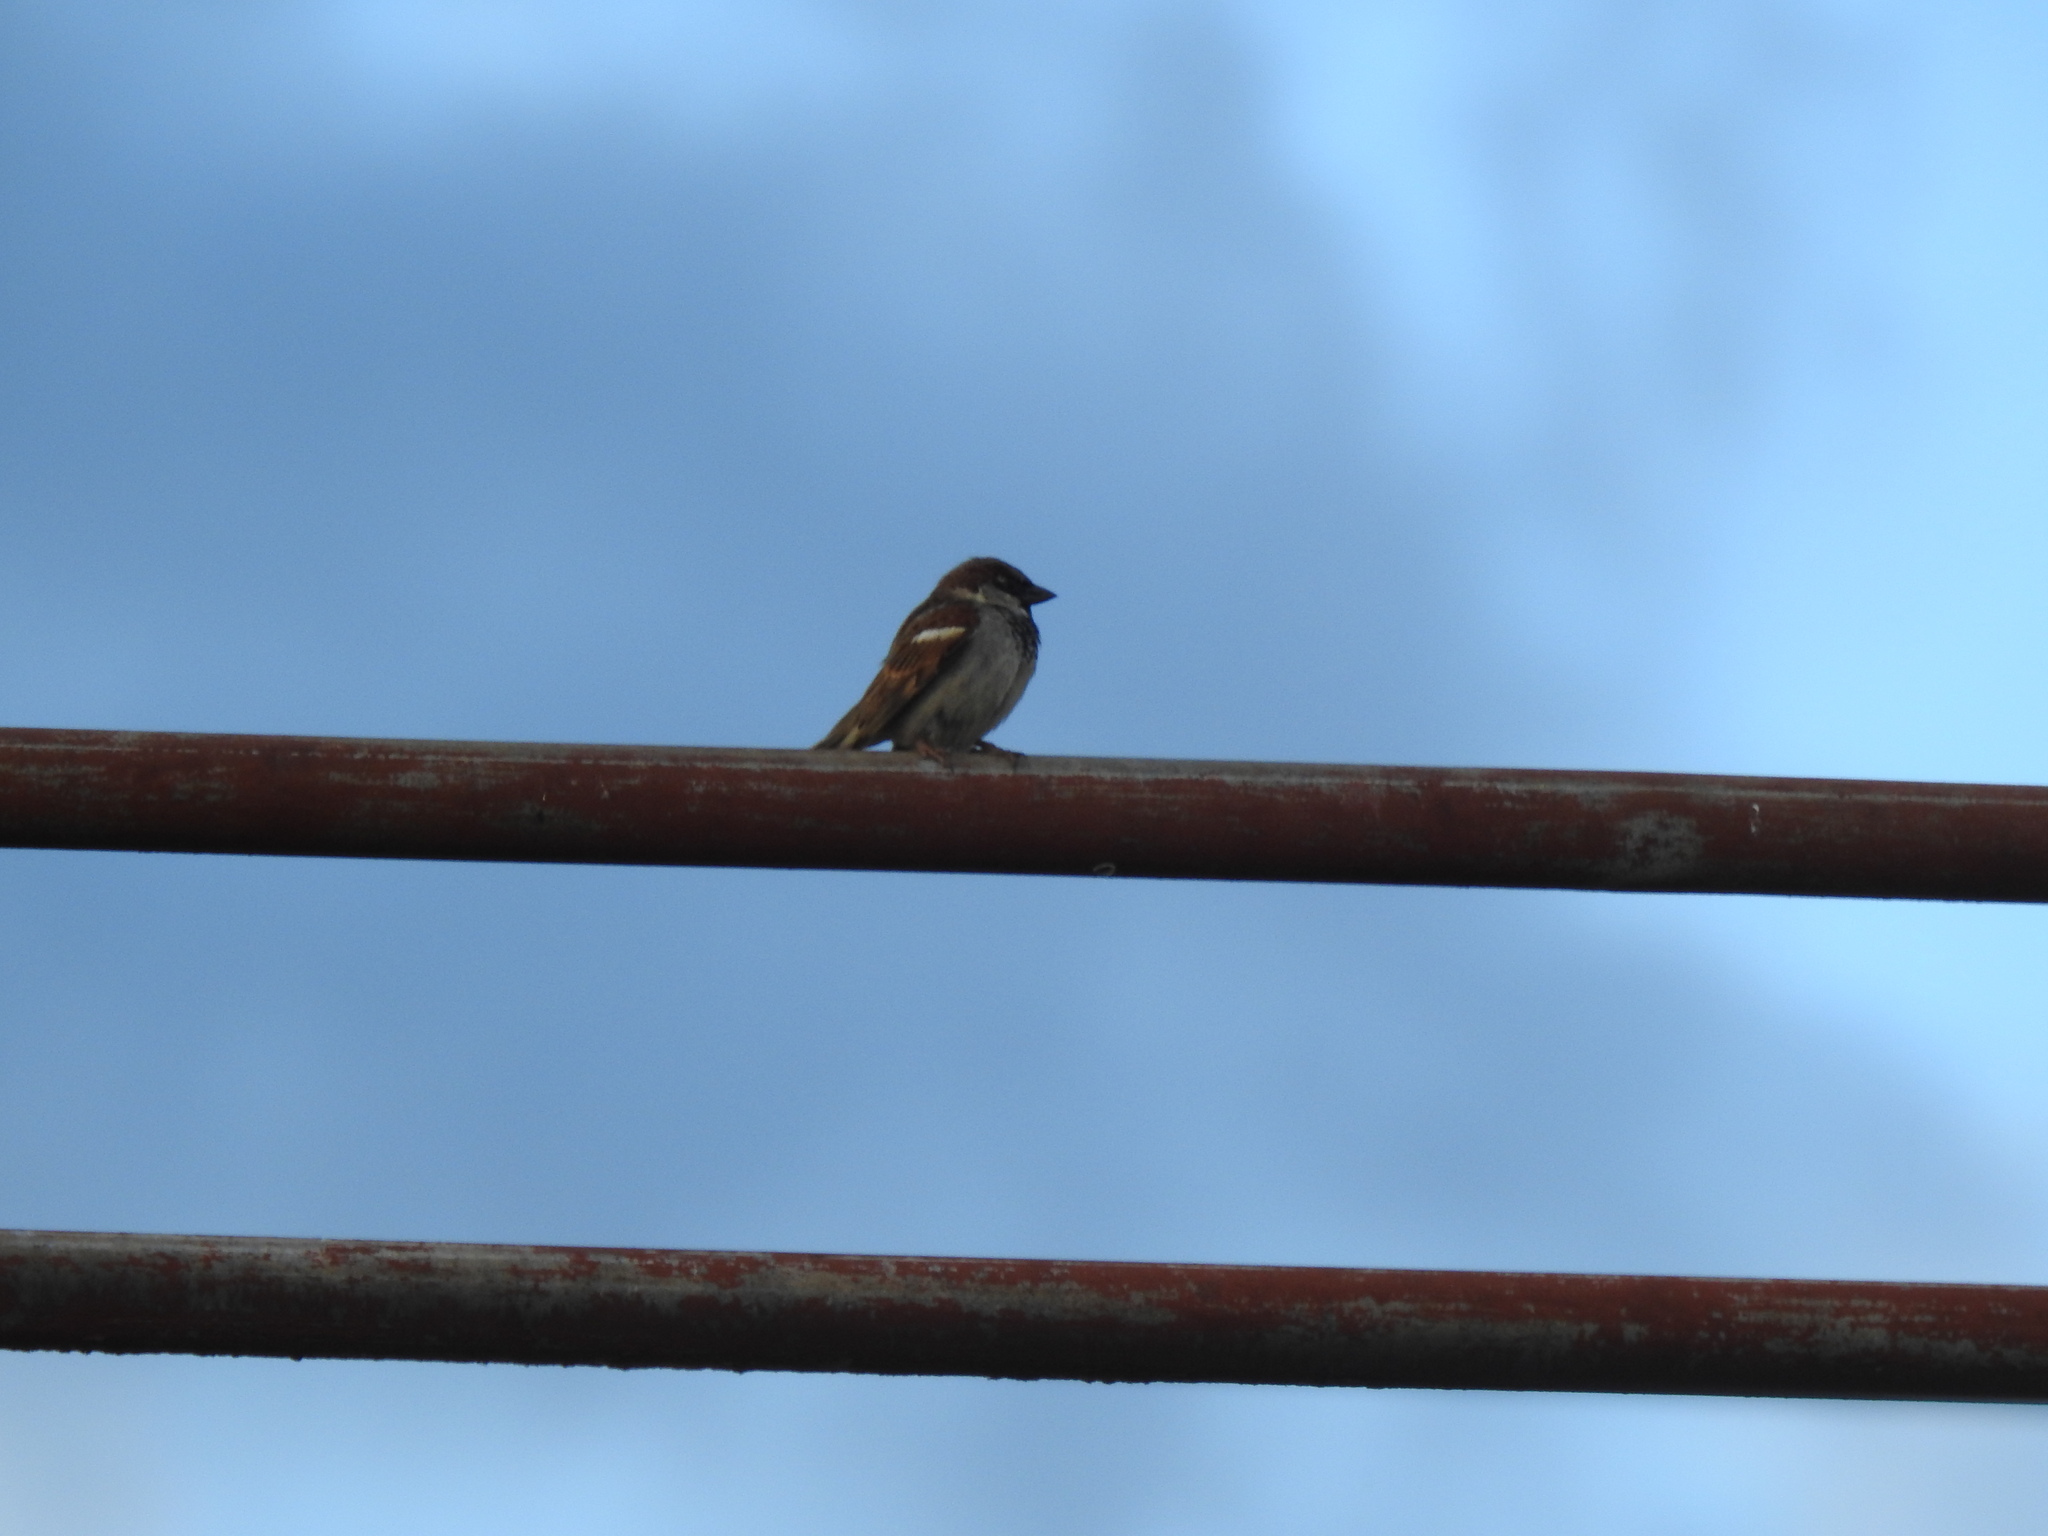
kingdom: Animalia
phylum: Chordata
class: Aves
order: Passeriformes
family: Passeridae
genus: Passer
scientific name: Passer domesticus
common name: House sparrow
